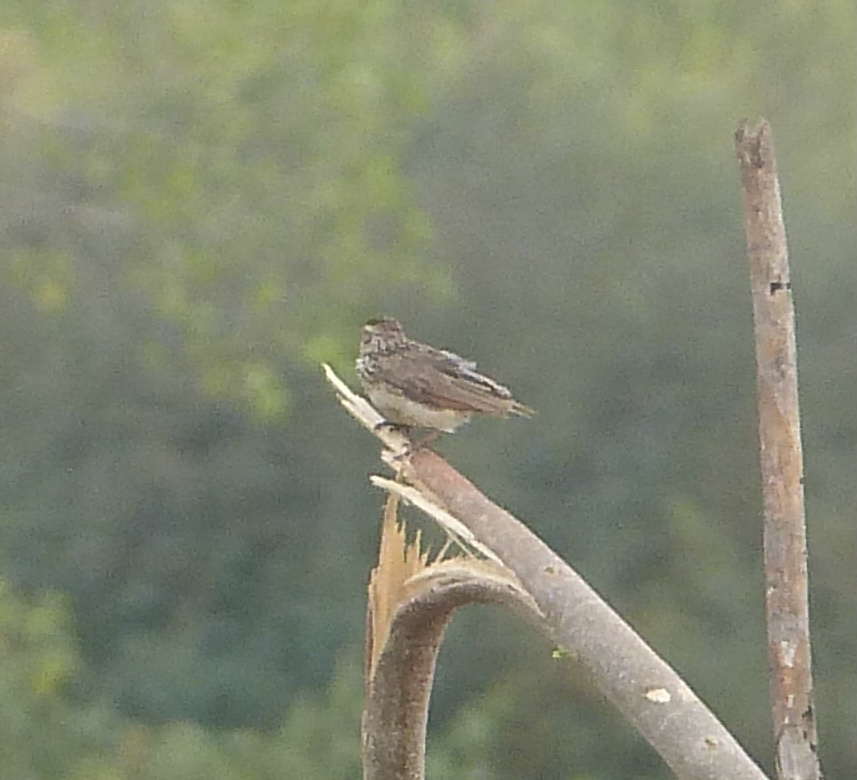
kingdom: Animalia
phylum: Chordata
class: Aves
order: Passeriformes
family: Alaudidae
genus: Mirafra
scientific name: Mirafra affinis
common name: Jerdon's bushlark
